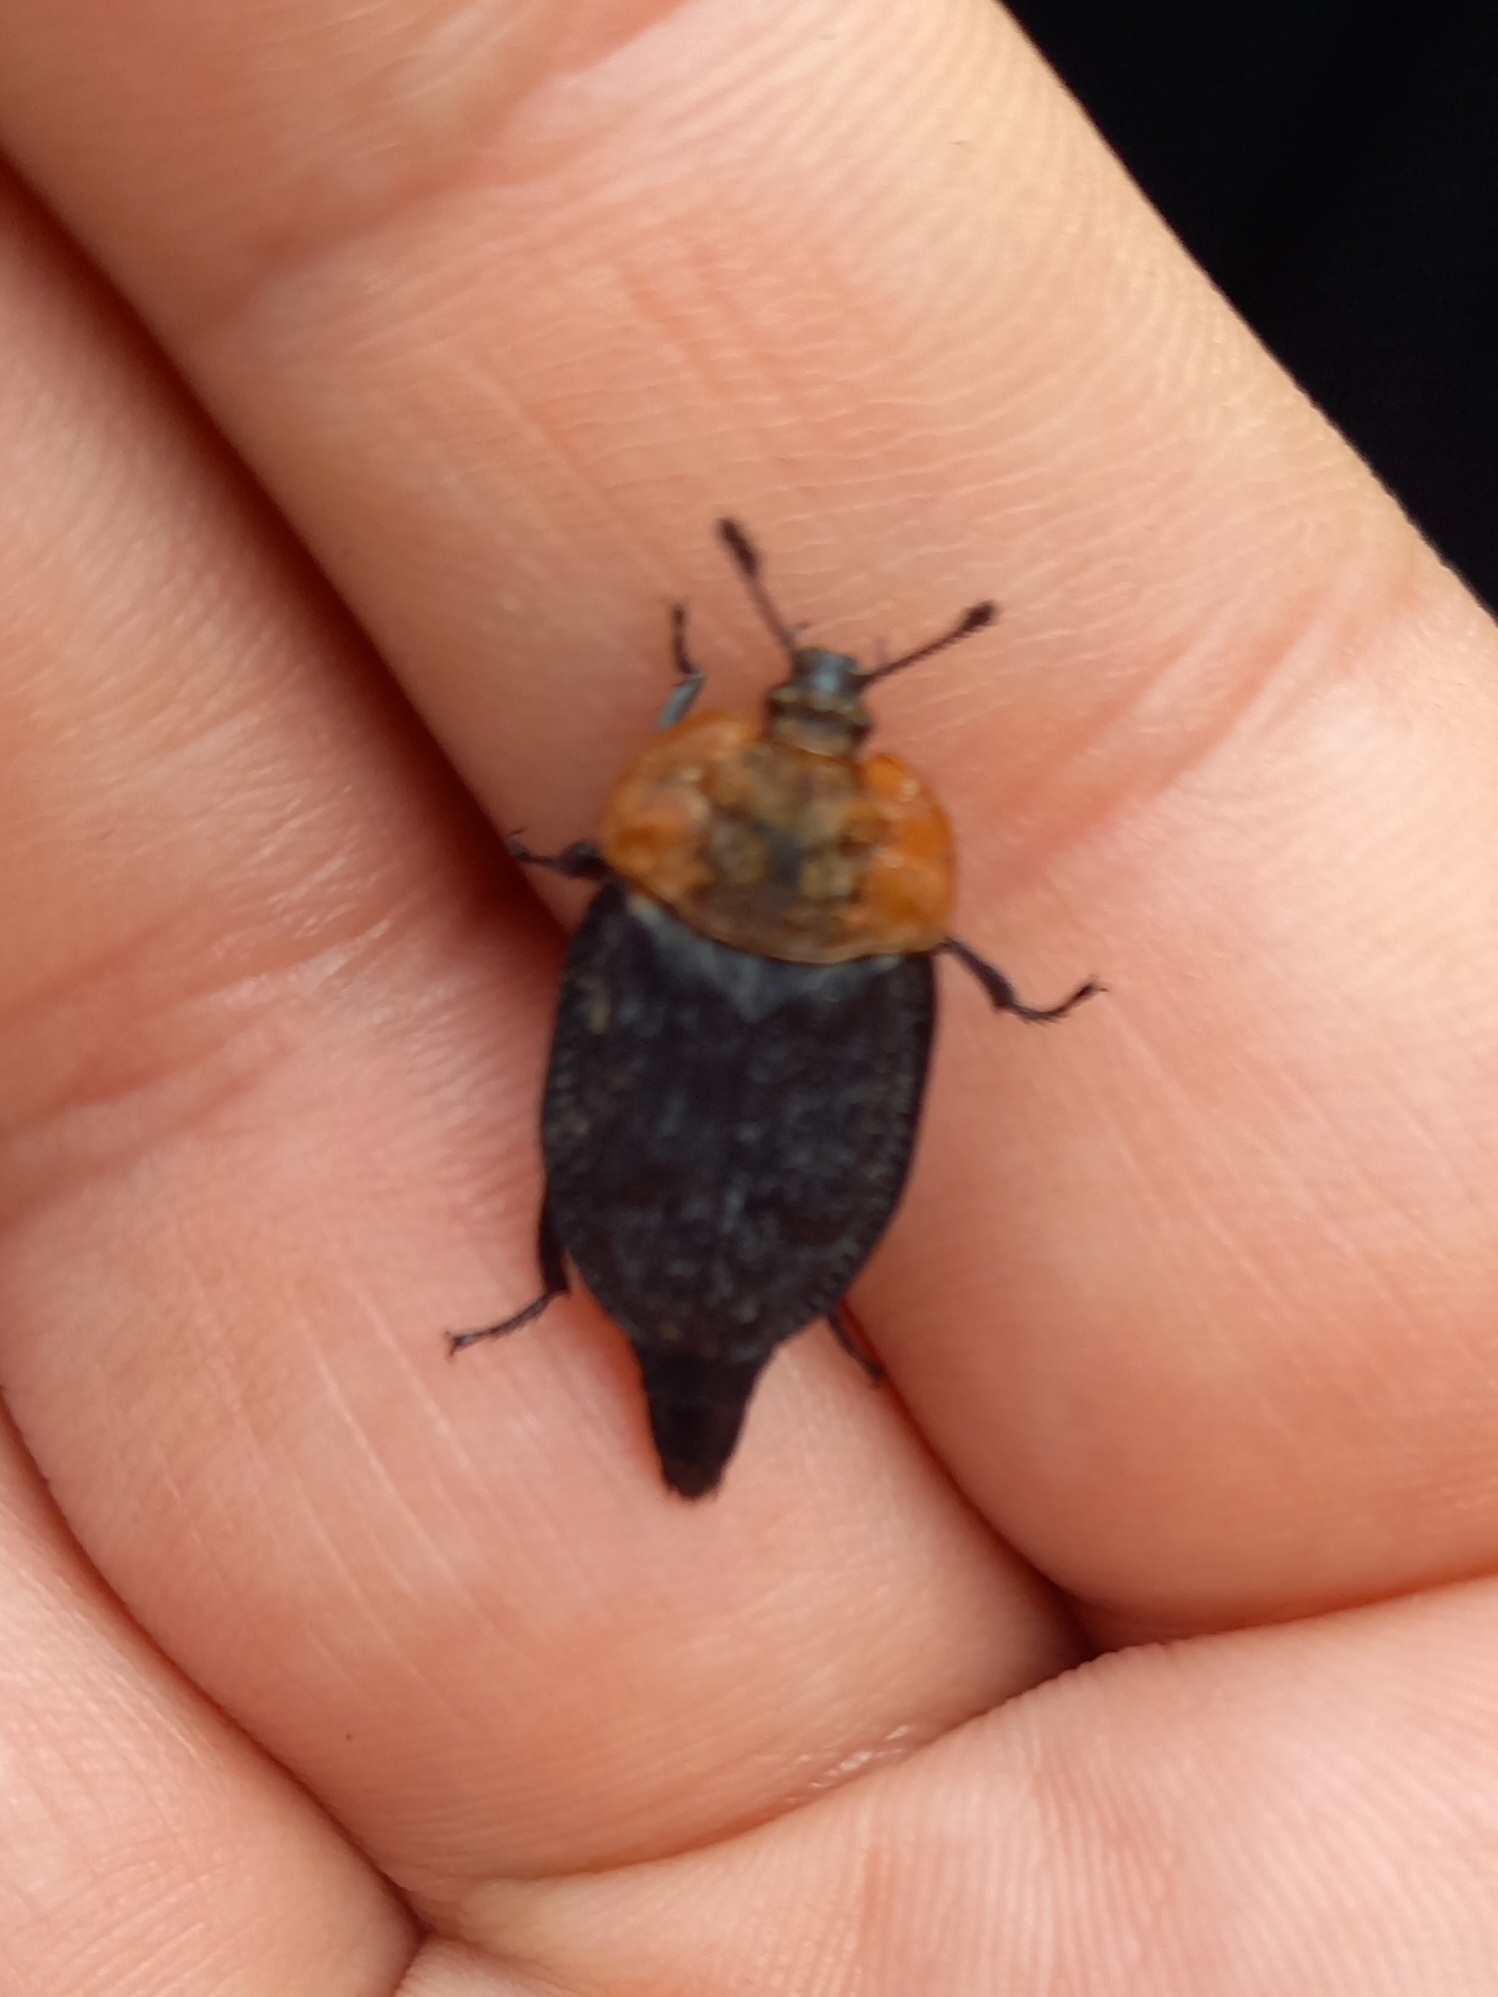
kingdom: Animalia
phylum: Arthropoda
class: Insecta
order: Coleoptera
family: Staphylinidae
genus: Oiceoptoma
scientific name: Oiceoptoma thoracicum
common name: Red-breasted carrion beetle
